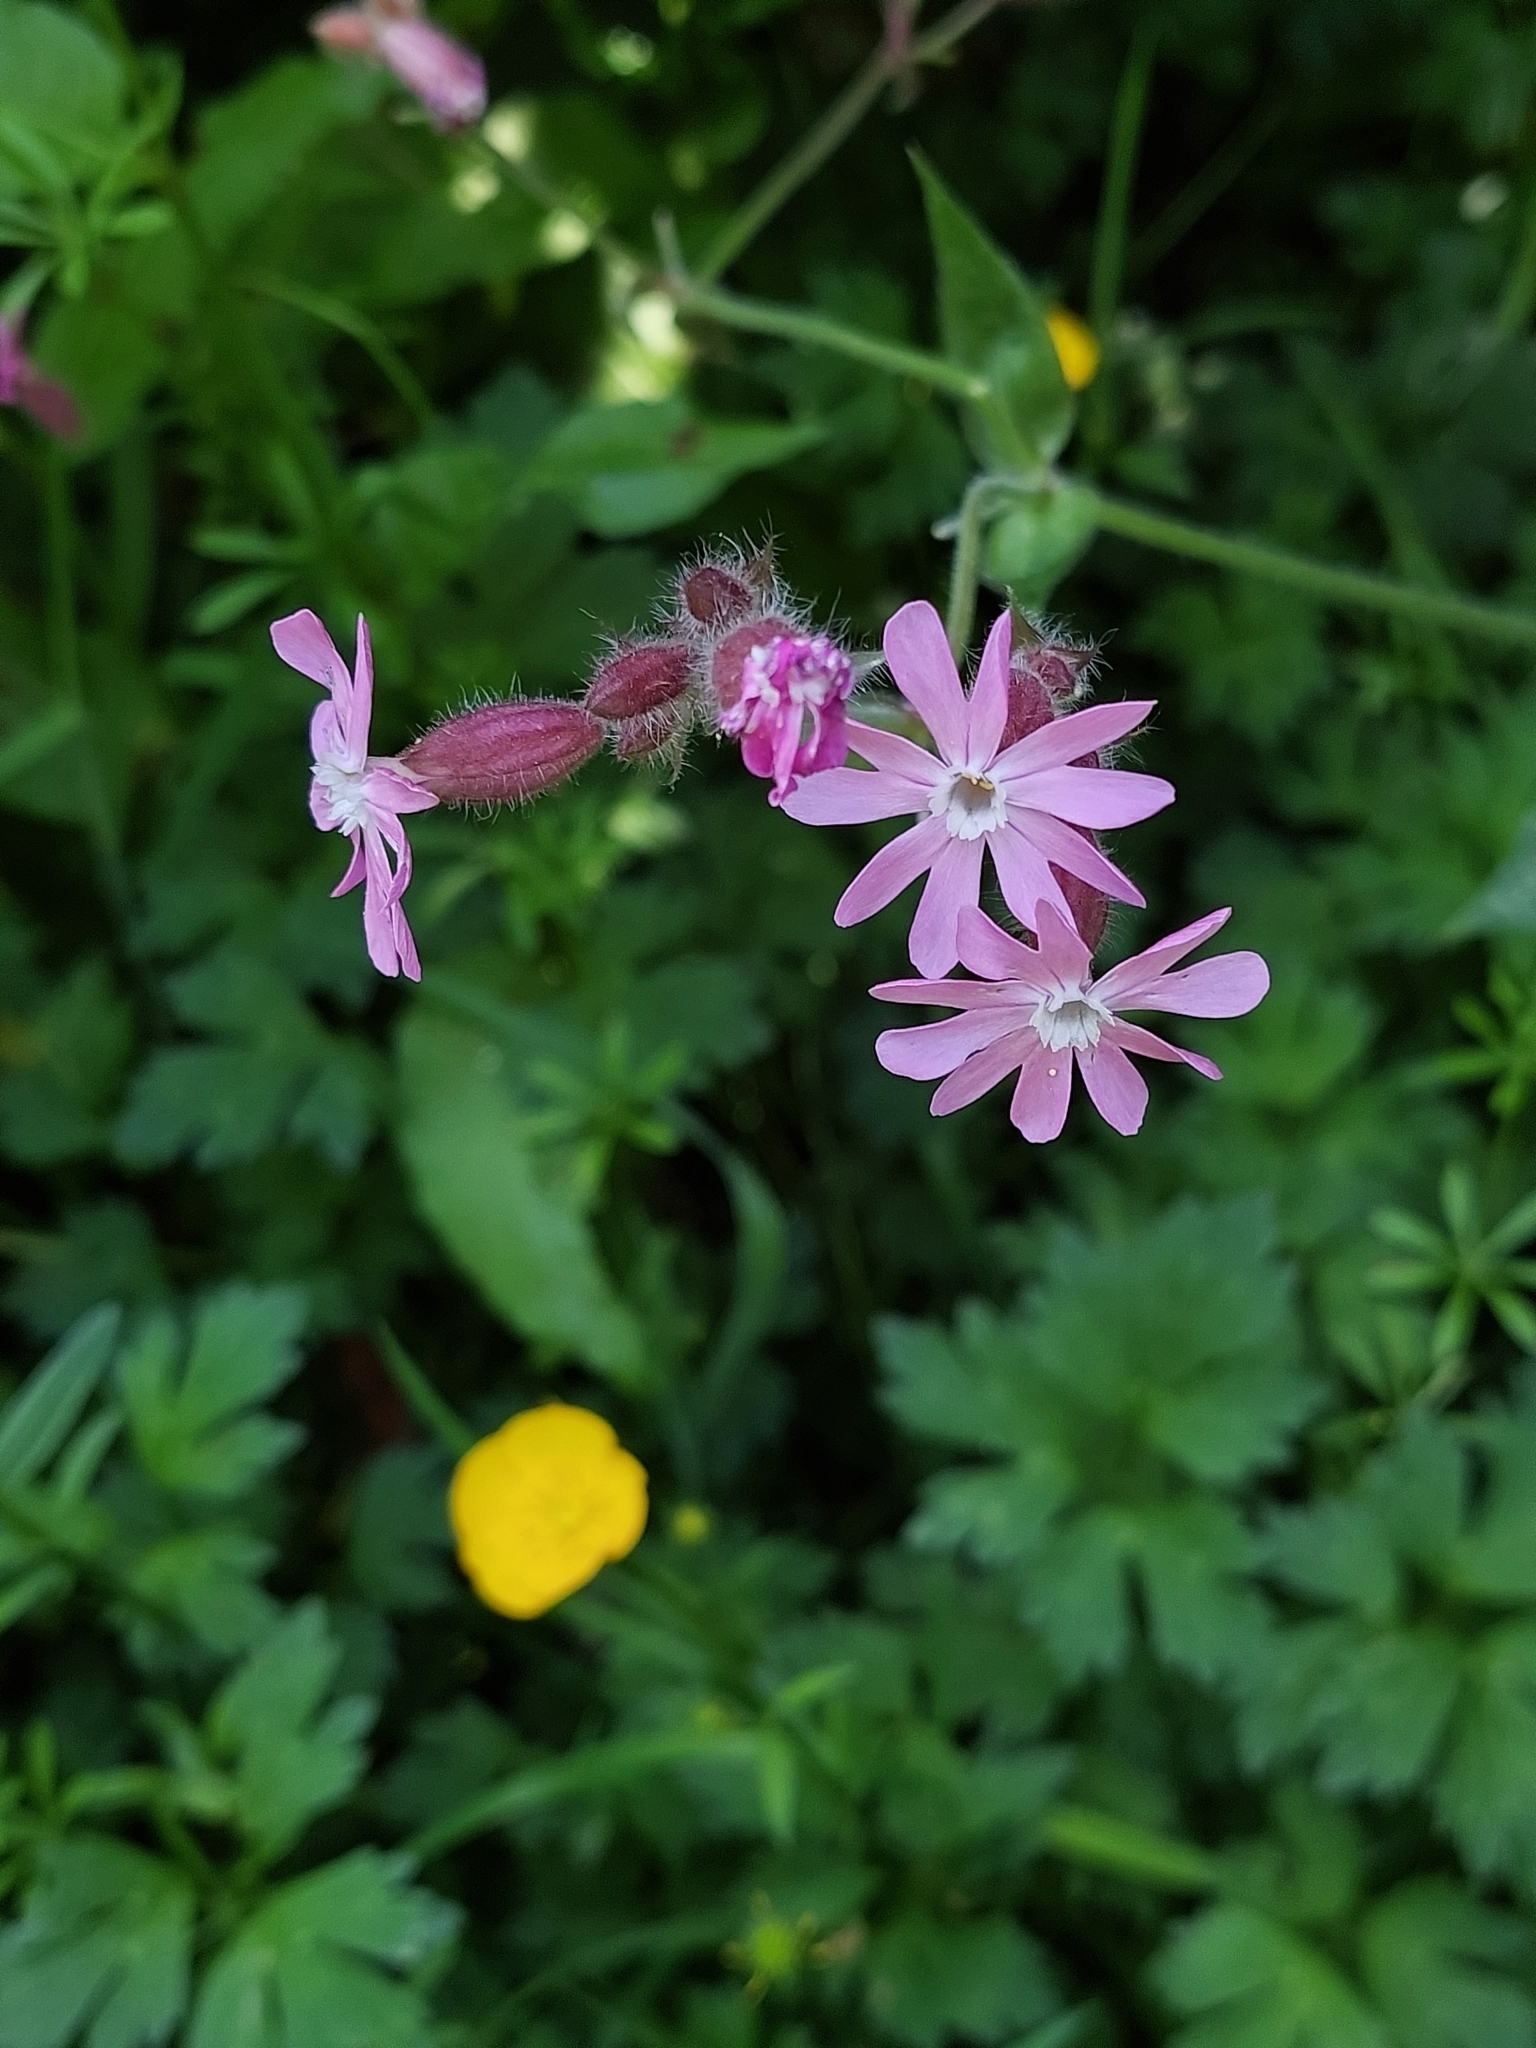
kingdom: Plantae
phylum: Tracheophyta
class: Magnoliopsida
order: Caryophyllales
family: Caryophyllaceae
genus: Silene
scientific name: Silene dioica
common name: Red campion
